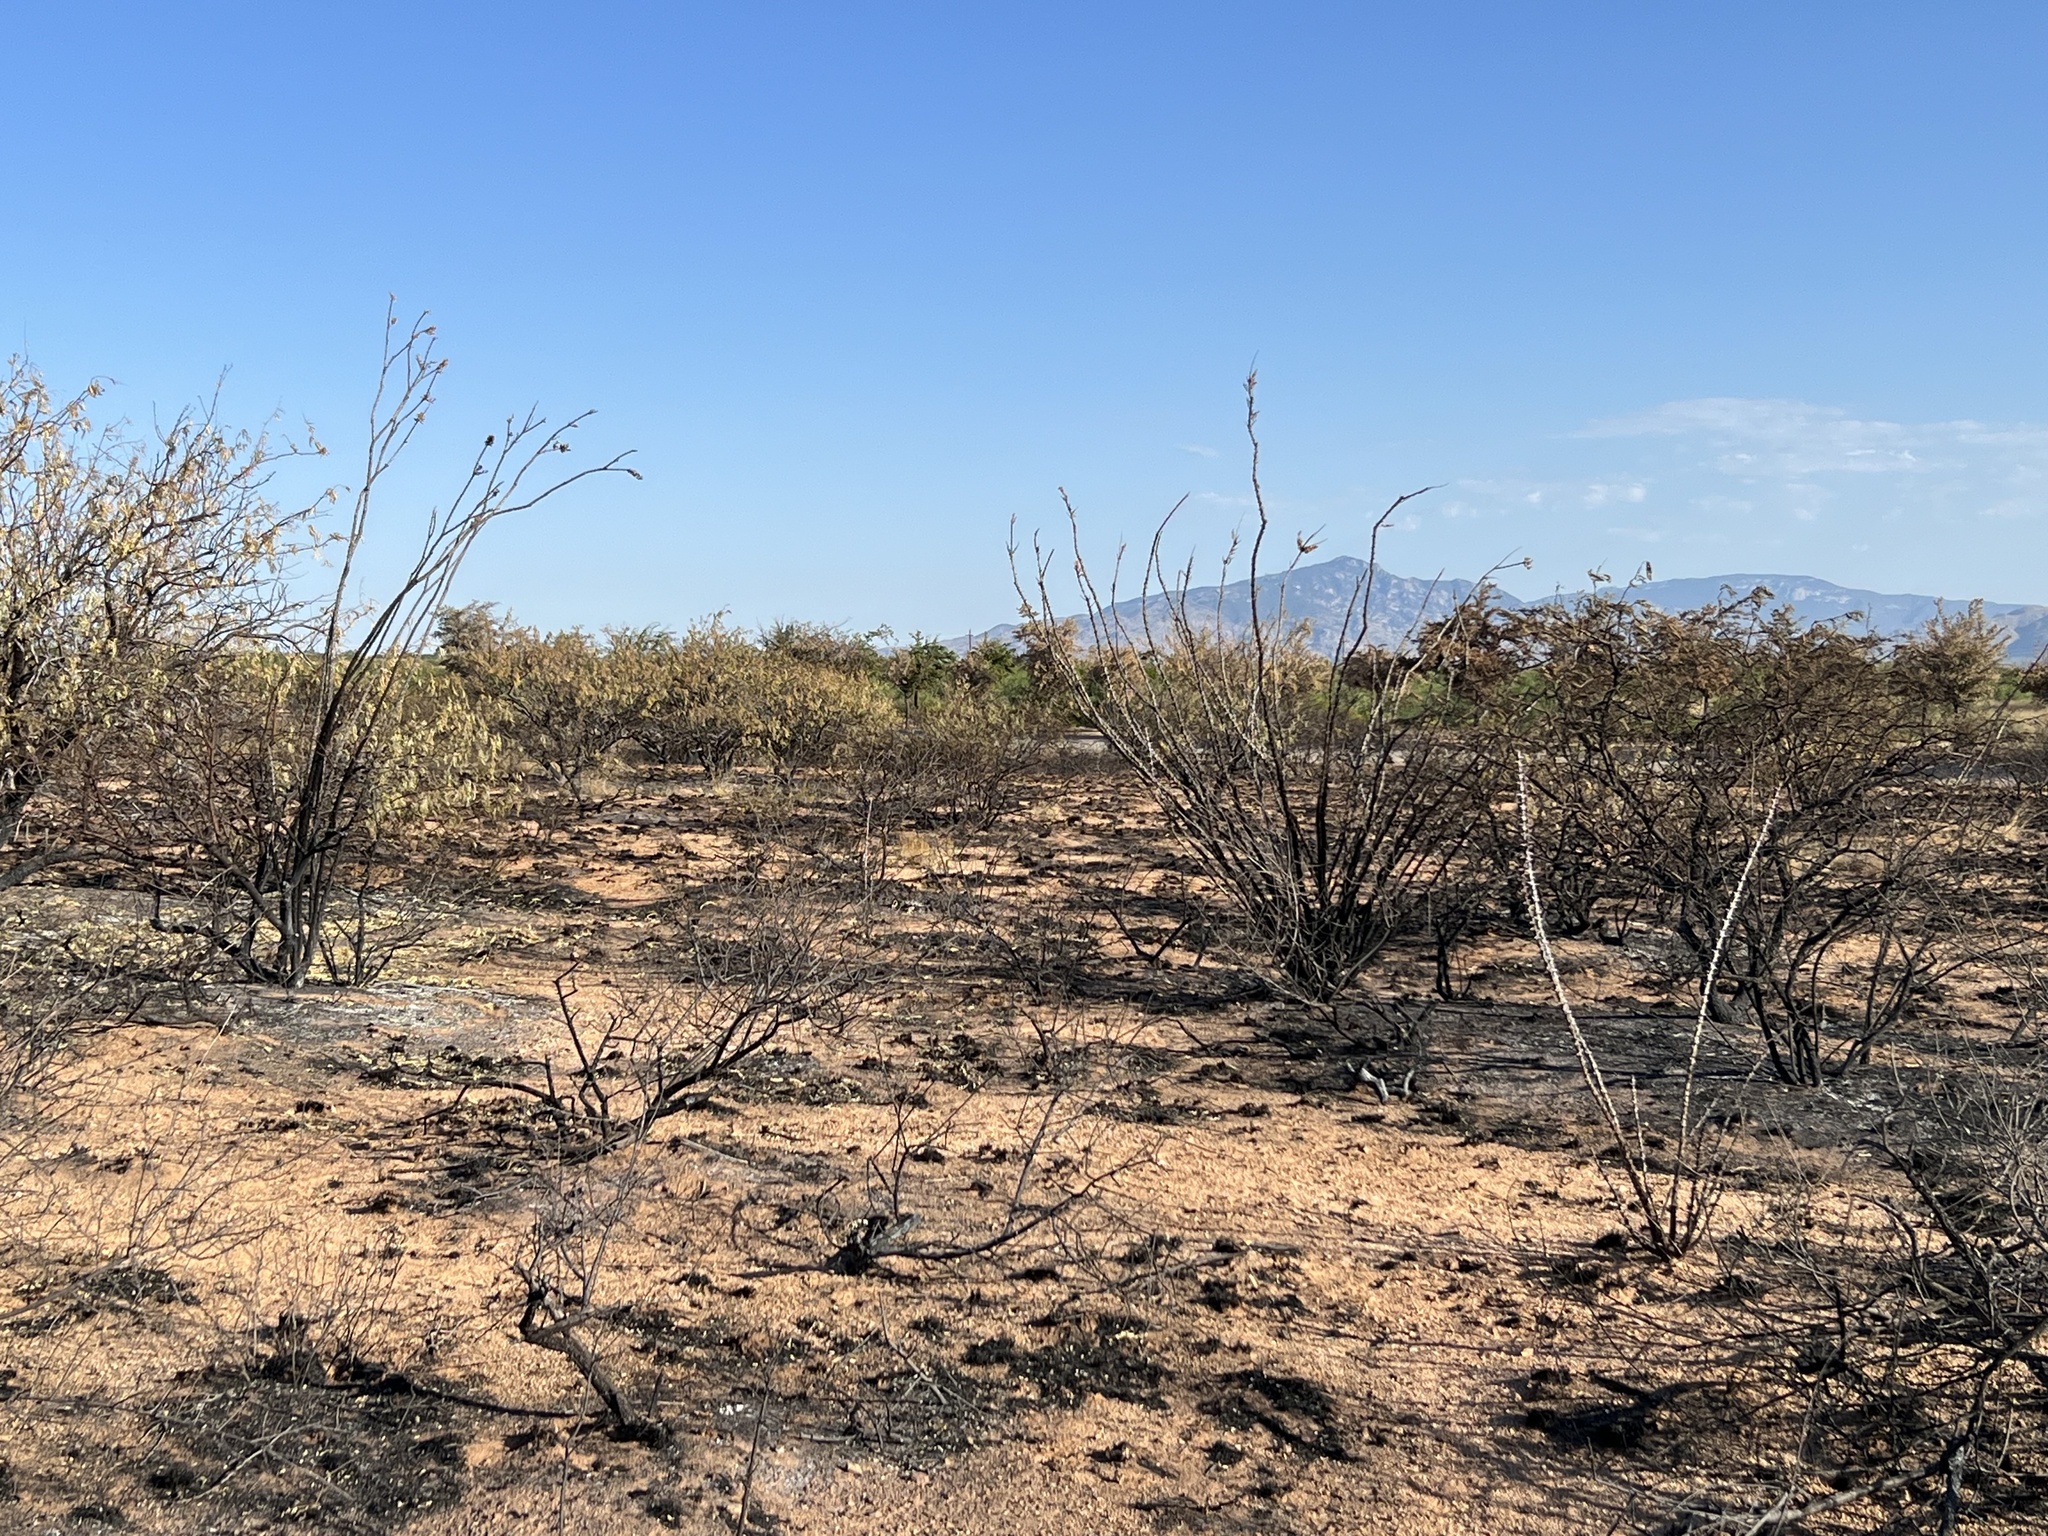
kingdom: Plantae
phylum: Tracheophyta
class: Magnoliopsida
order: Ericales
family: Fouquieriaceae
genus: Fouquieria
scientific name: Fouquieria splendens
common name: Vine-cactus
